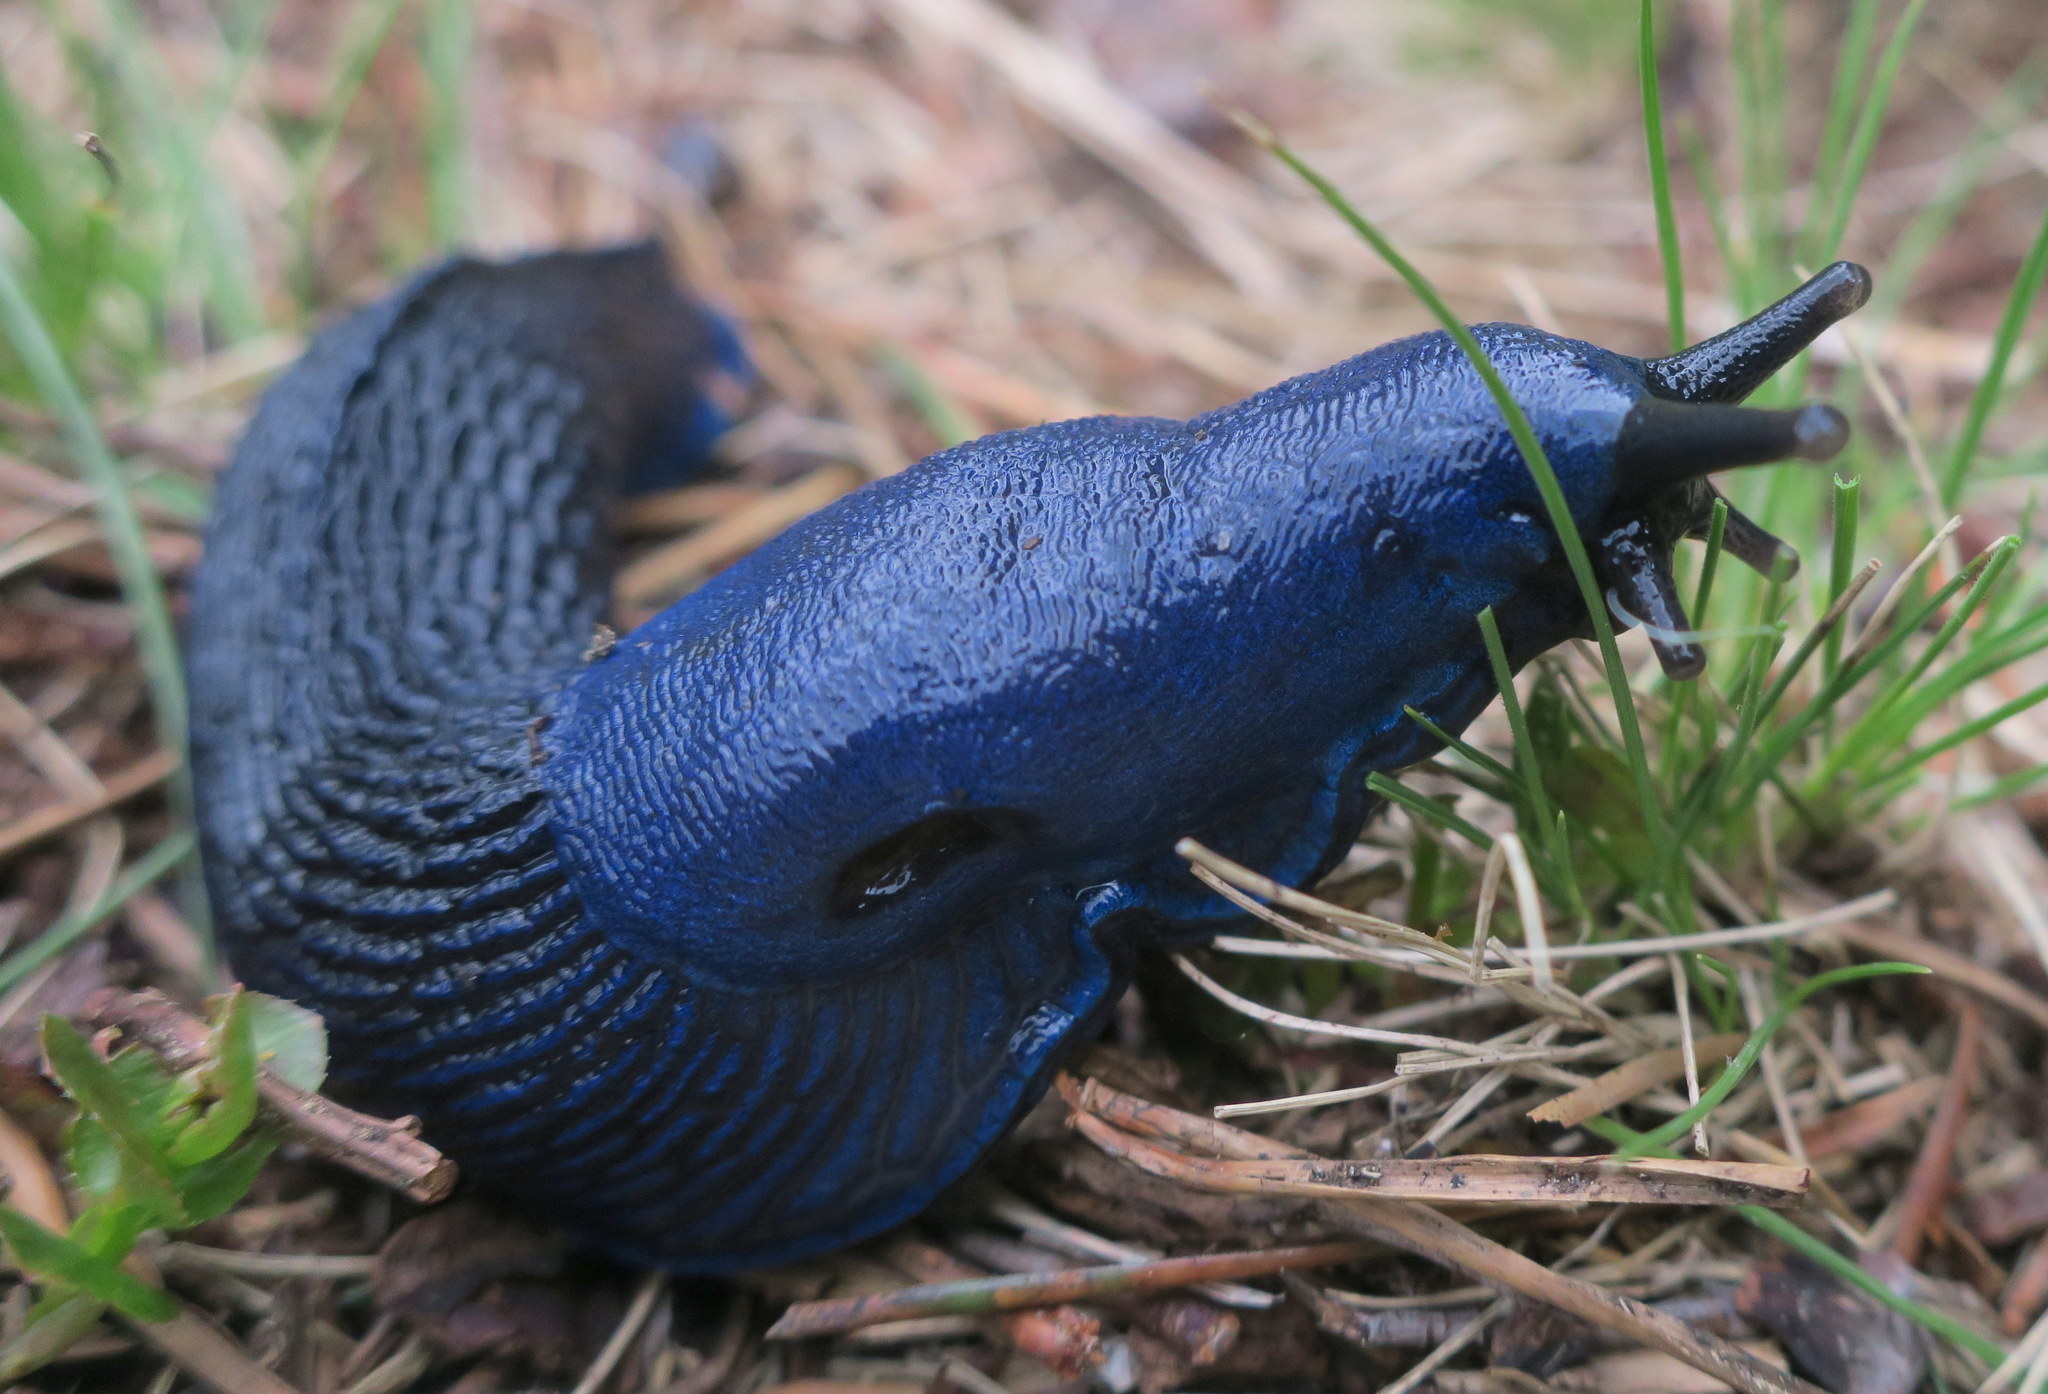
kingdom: Animalia
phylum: Mollusca
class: Gastropoda
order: Stylommatophora
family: Limacidae
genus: Bielzia
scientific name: Bielzia coerulans
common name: Carpathian blue slug
